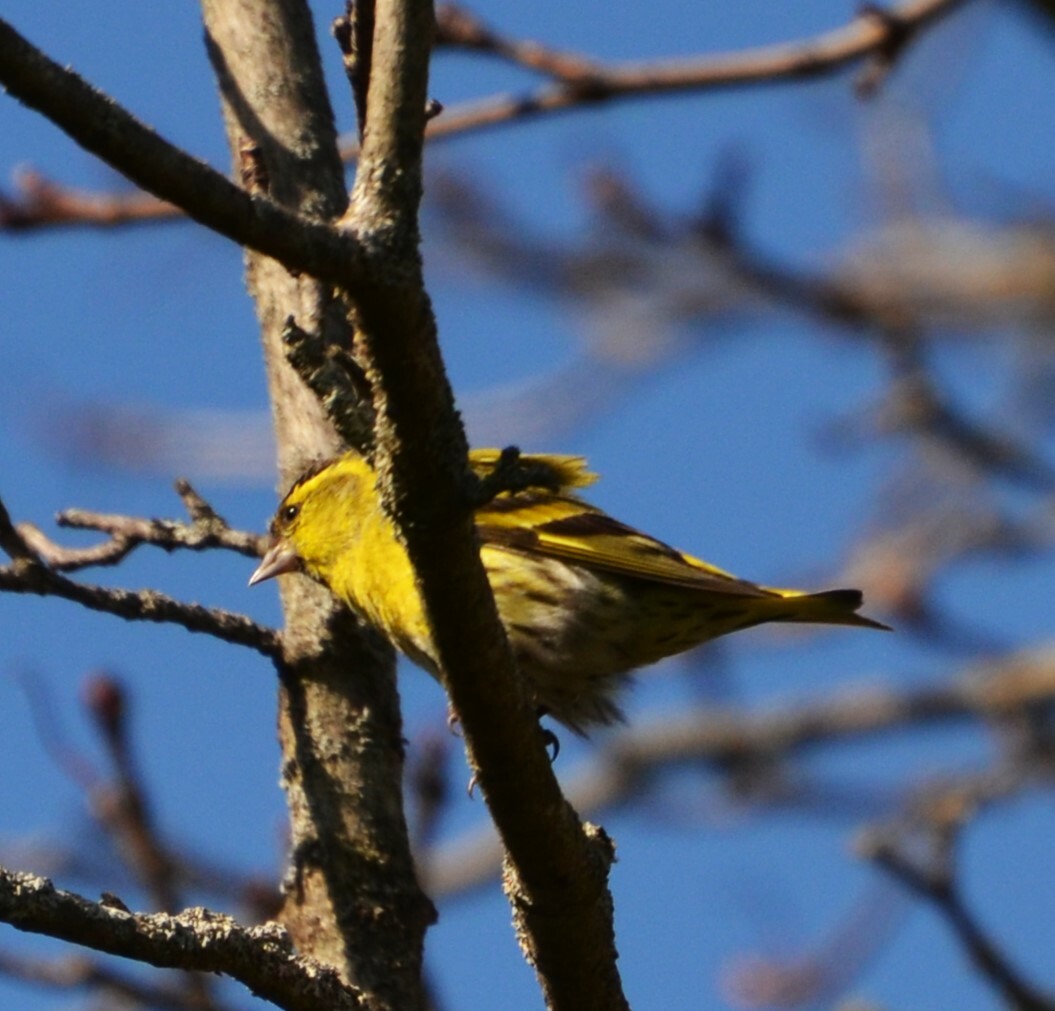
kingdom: Animalia
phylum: Chordata
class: Aves
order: Passeriformes
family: Fringillidae
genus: Spinus
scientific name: Spinus spinus
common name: Eurasian siskin
